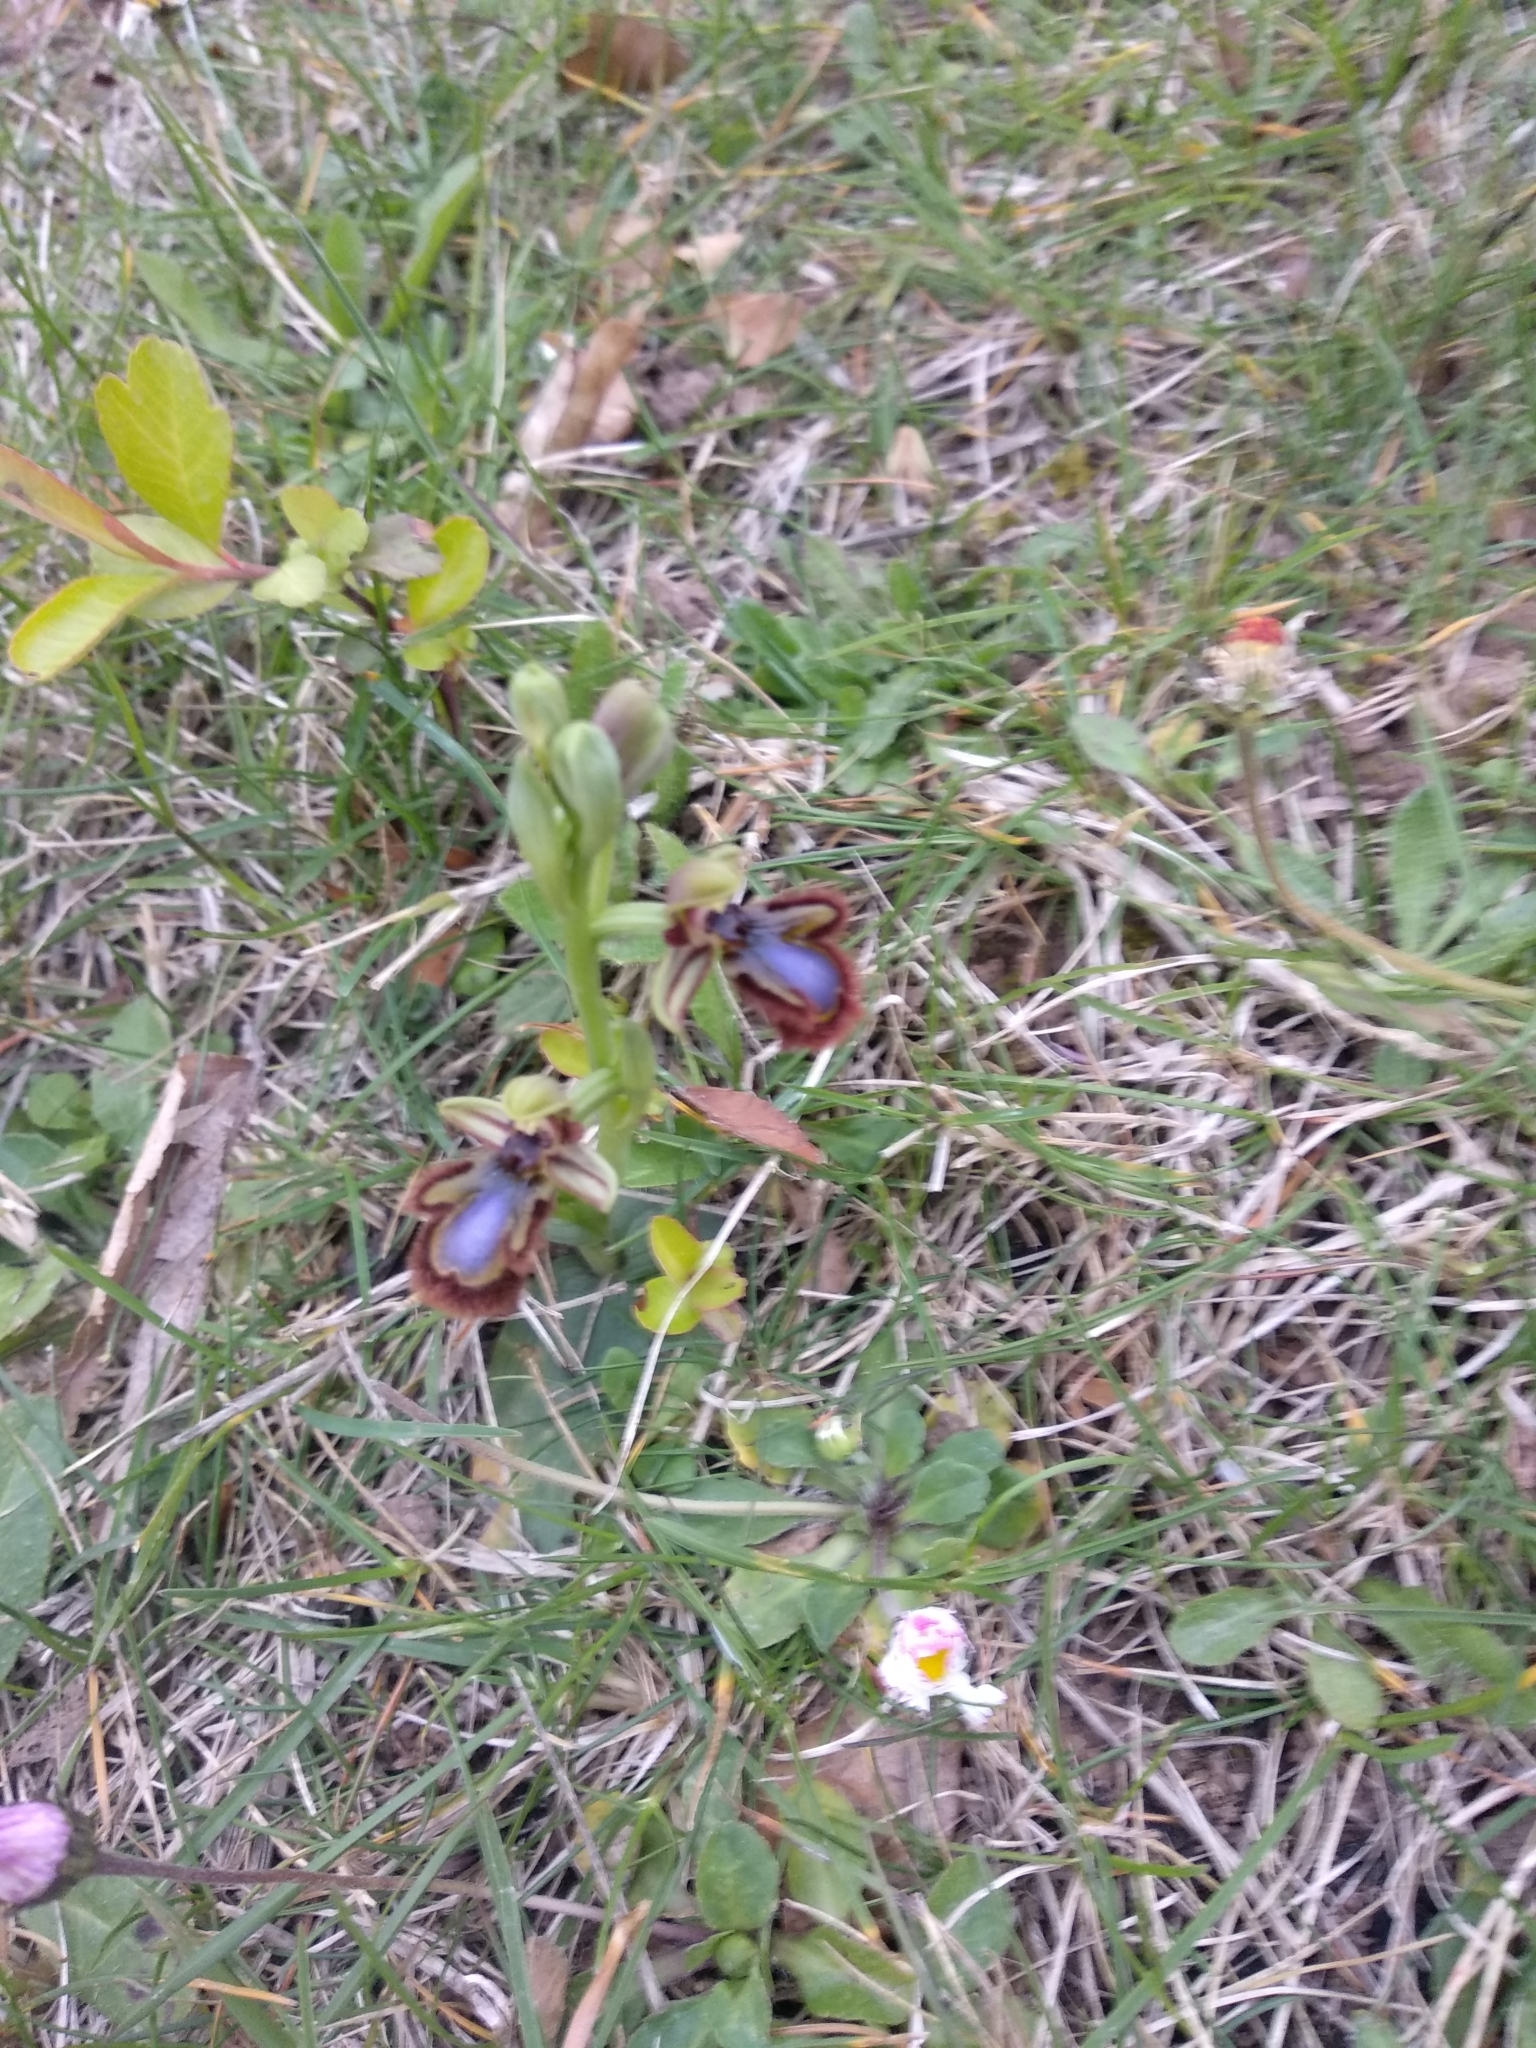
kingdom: Plantae
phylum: Tracheophyta
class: Liliopsida
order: Asparagales
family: Orchidaceae
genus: Ophrys
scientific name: Ophrys speculum
